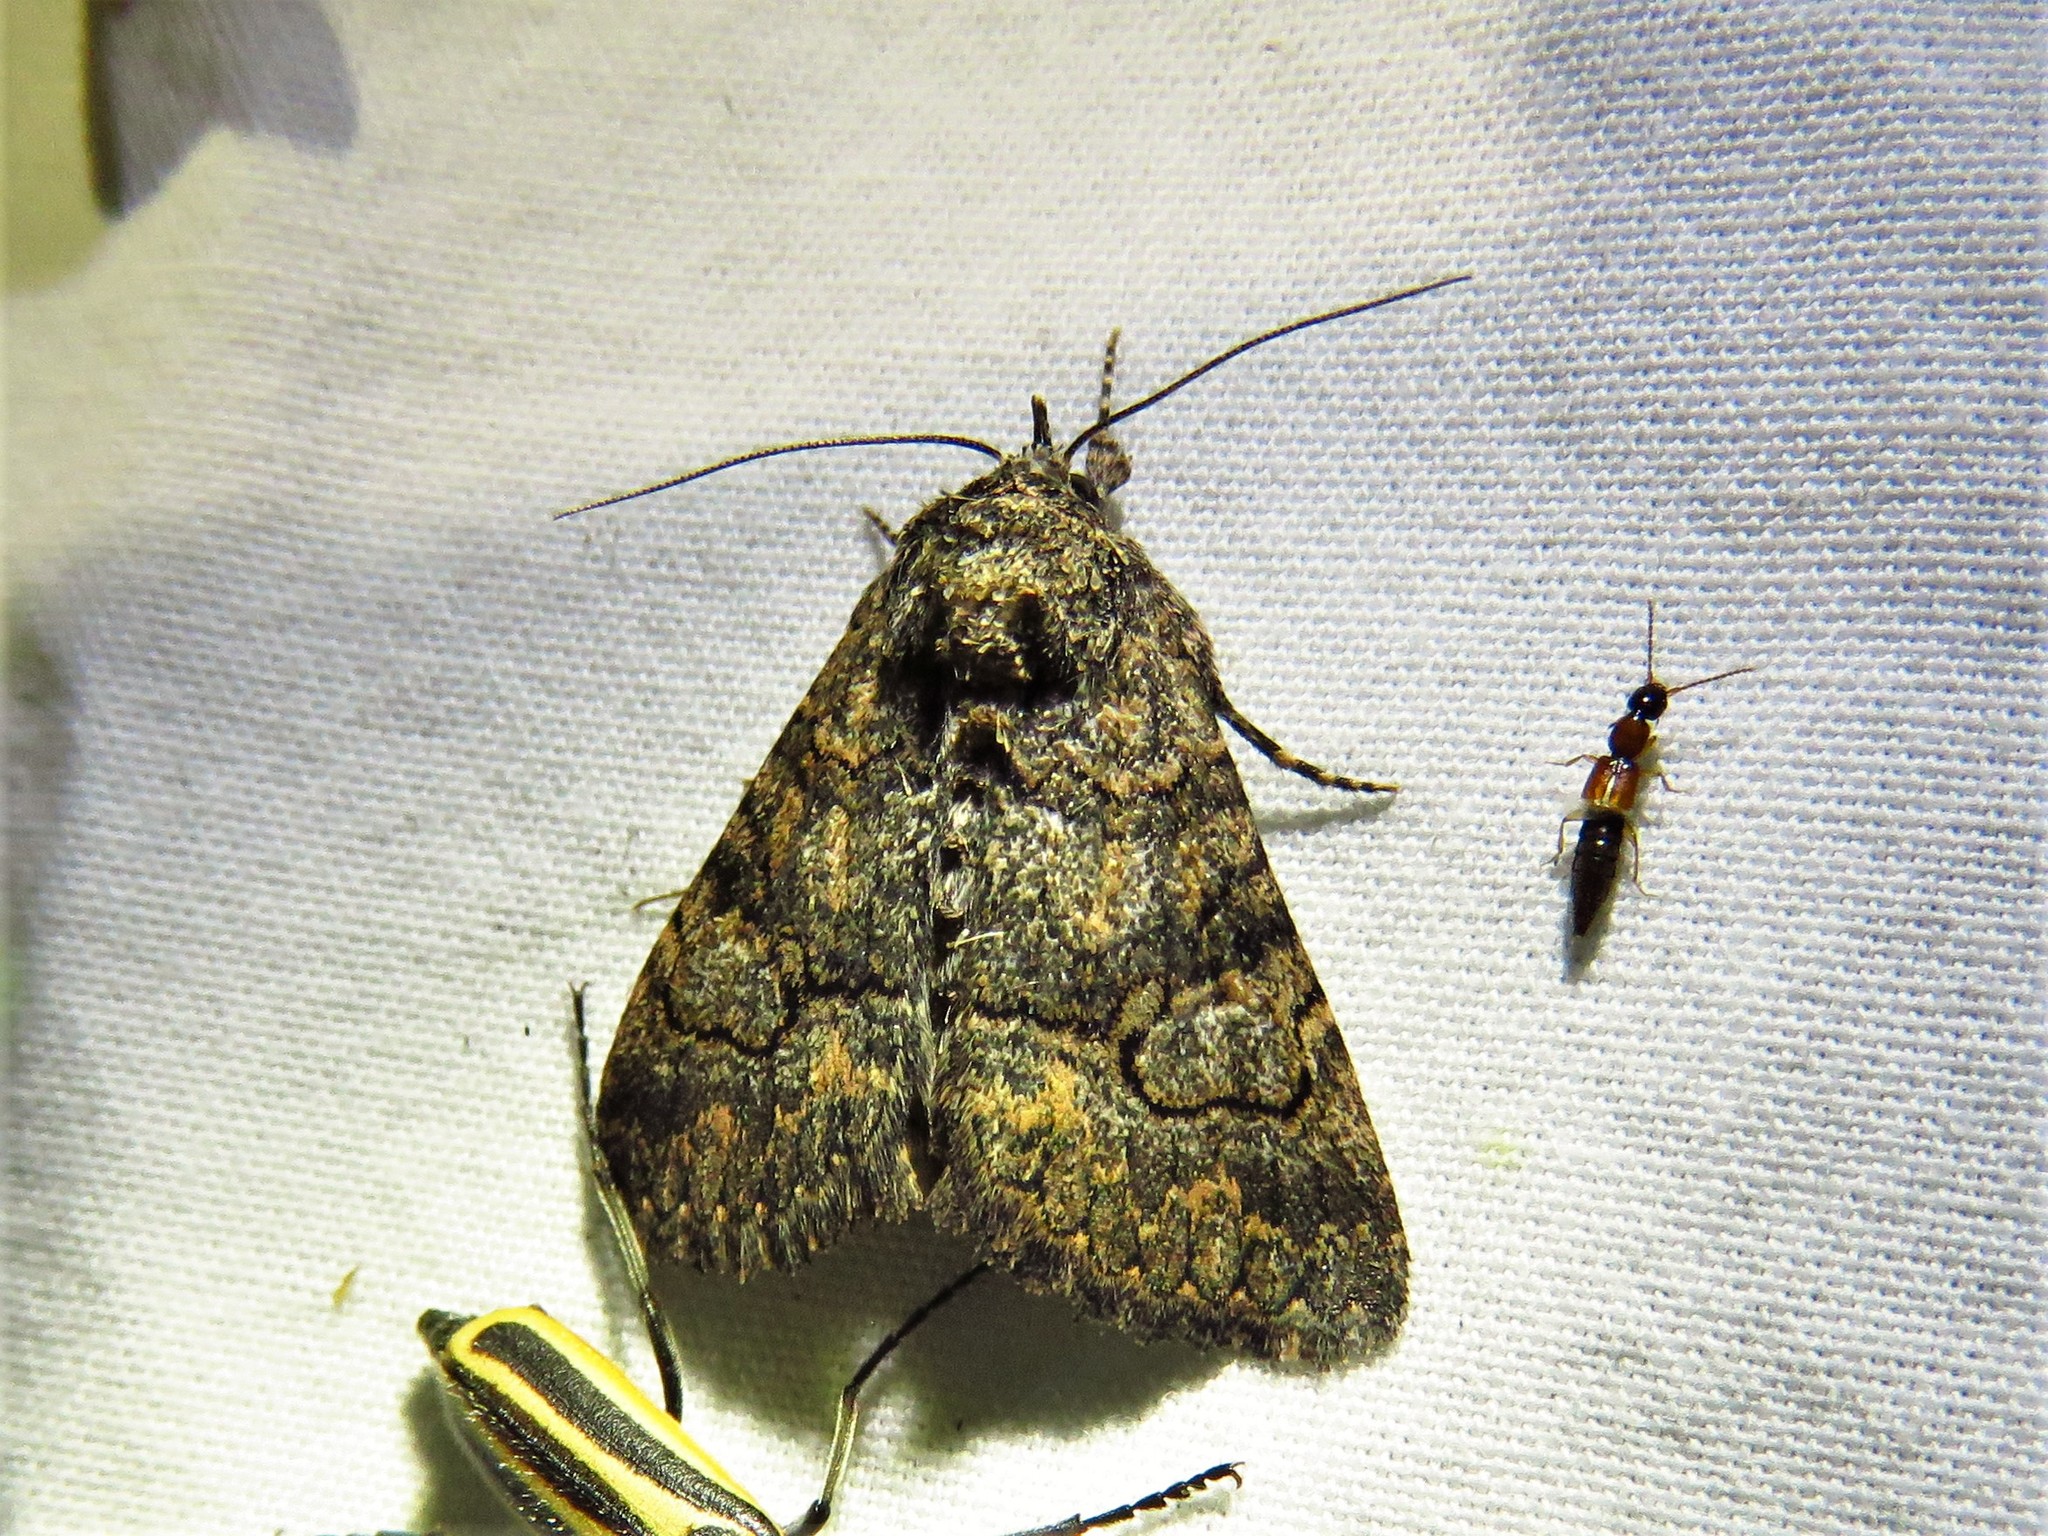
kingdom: Animalia
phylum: Arthropoda
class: Insecta
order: Lepidoptera
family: Erebidae
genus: Elousa
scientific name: Elousa mima
